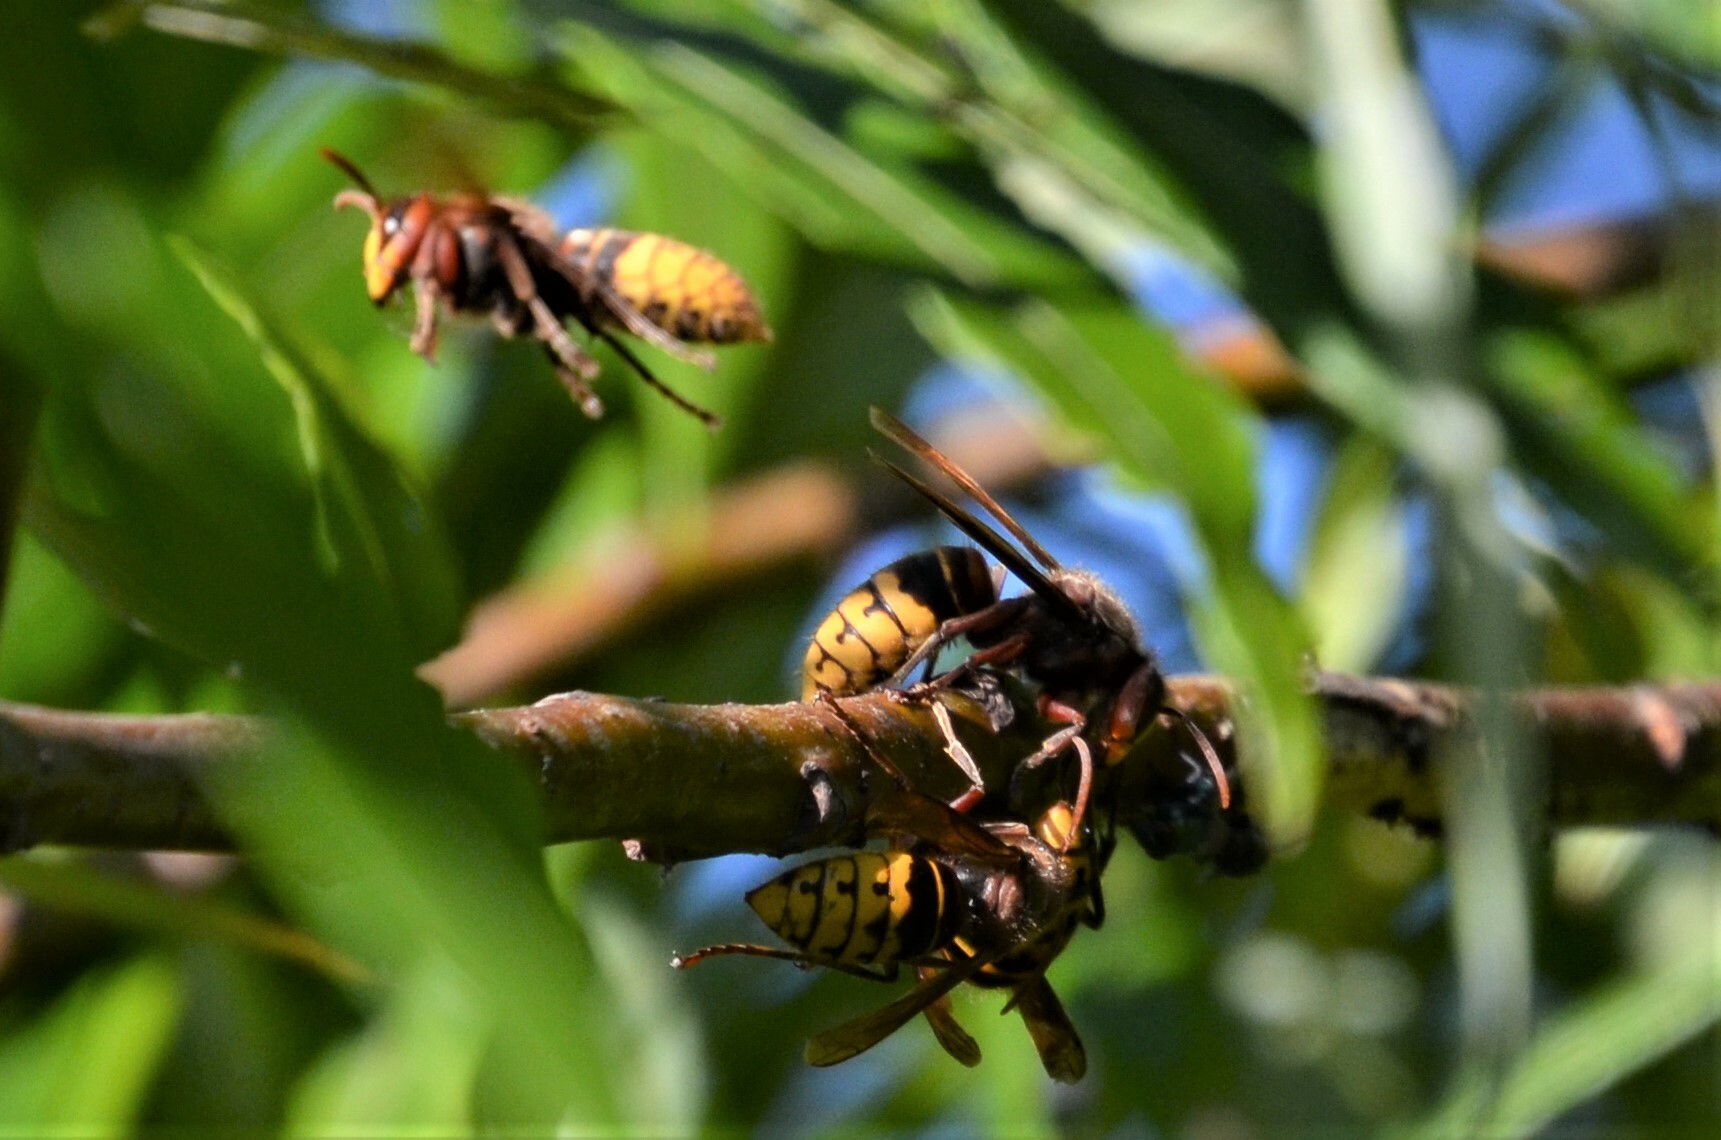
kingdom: Animalia
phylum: Arthropoda
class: Insecta
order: Hymenoptera
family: Vespidae
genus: Vespa
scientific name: Vespa crabro
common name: Hornet
